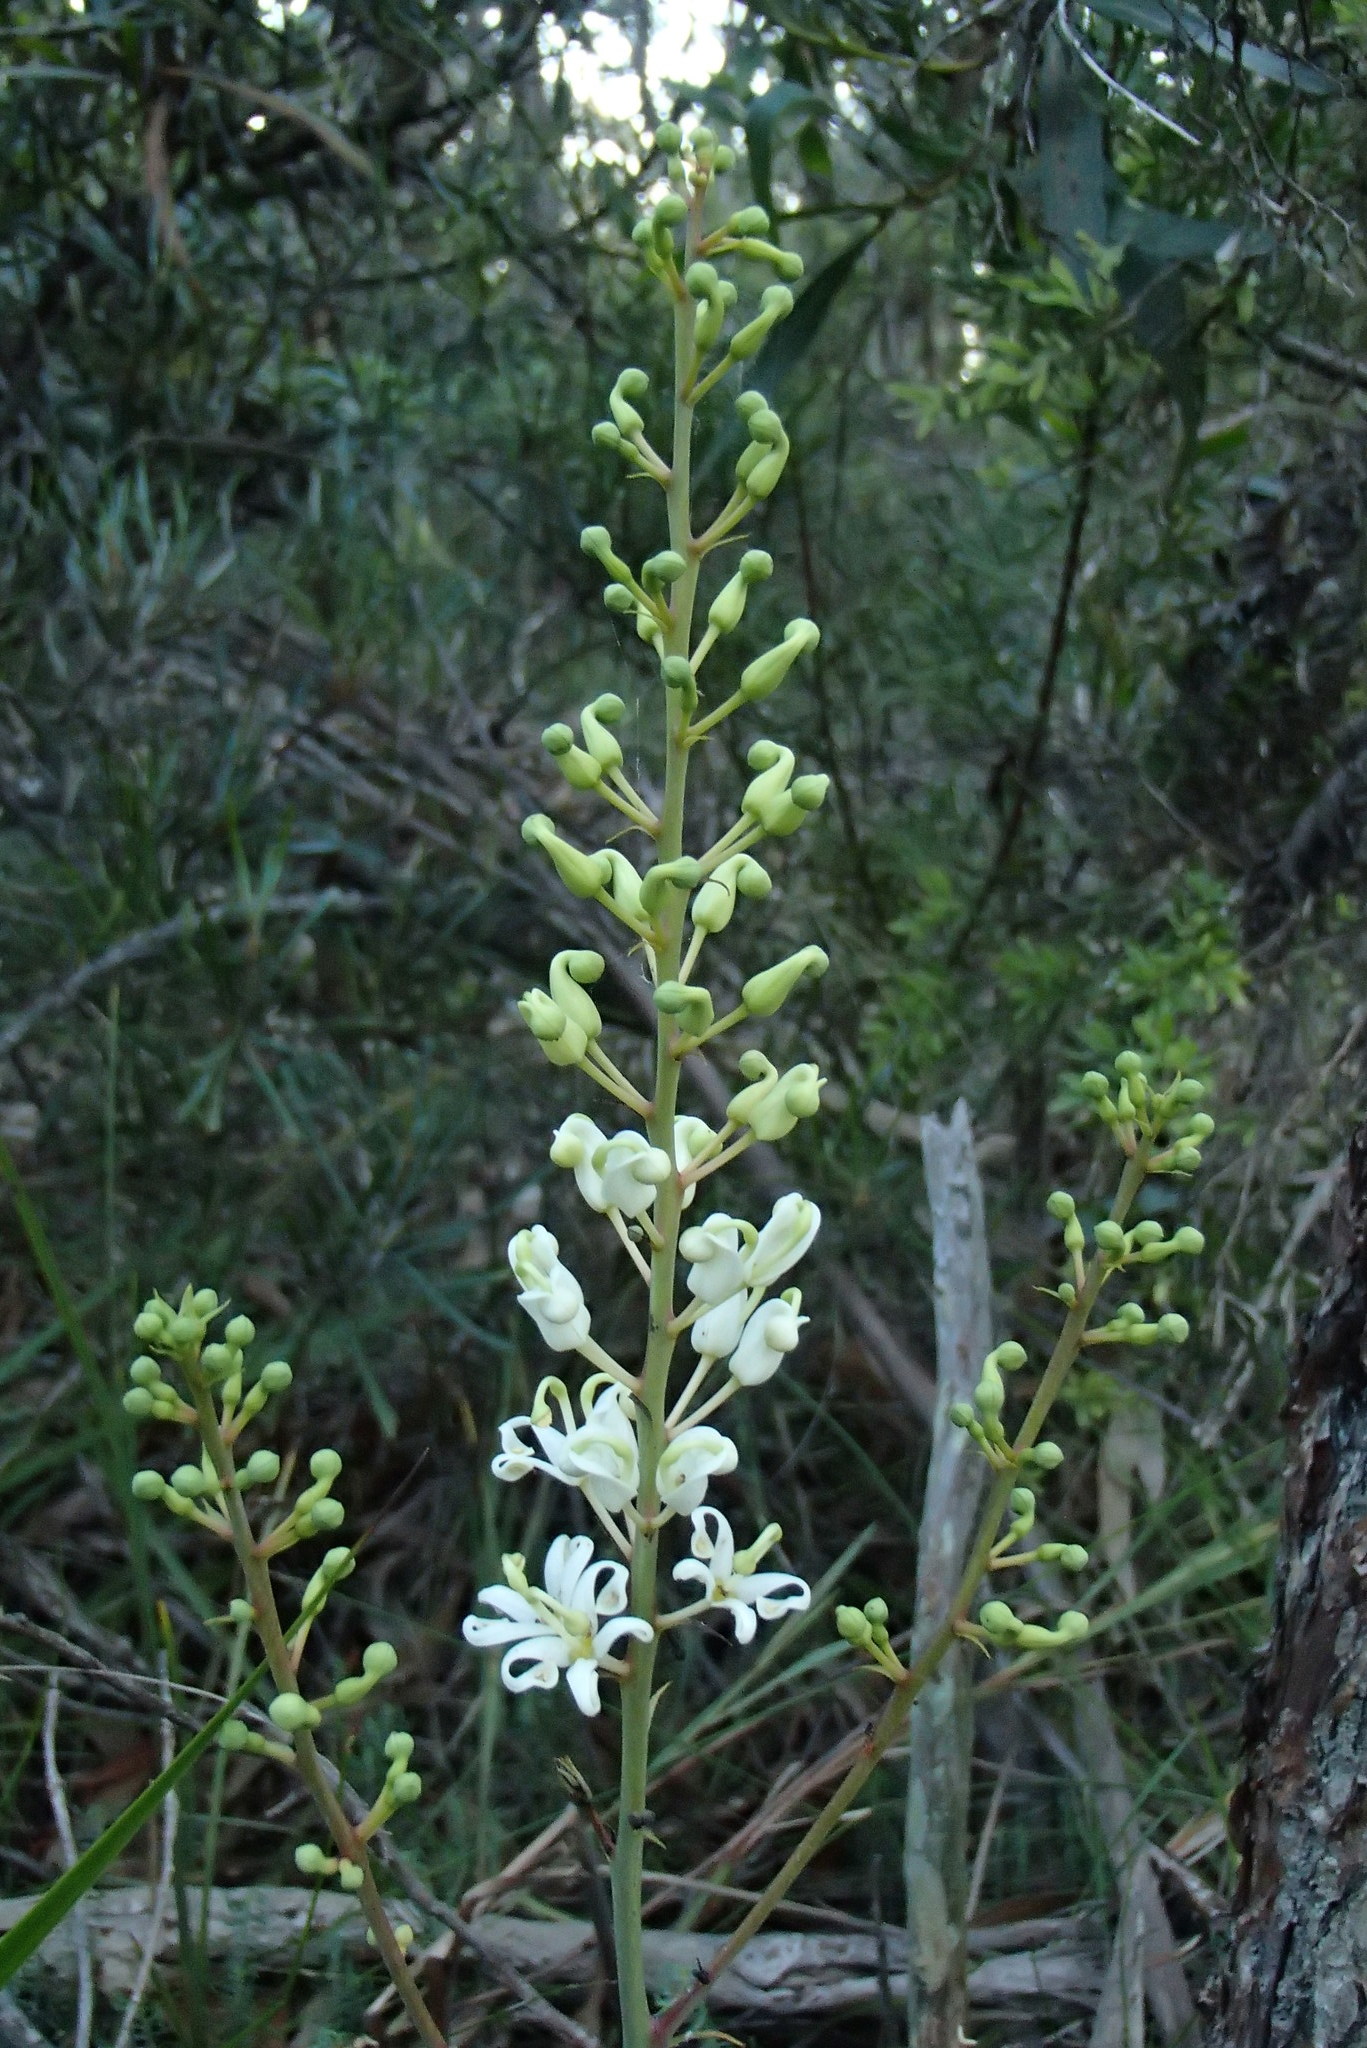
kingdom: Plantae
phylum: Tracheophyta
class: Magnoliopsida
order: Proteales
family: Proteaceae
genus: Lomatia
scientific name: Lomatia silaifolia
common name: Crinklebush
